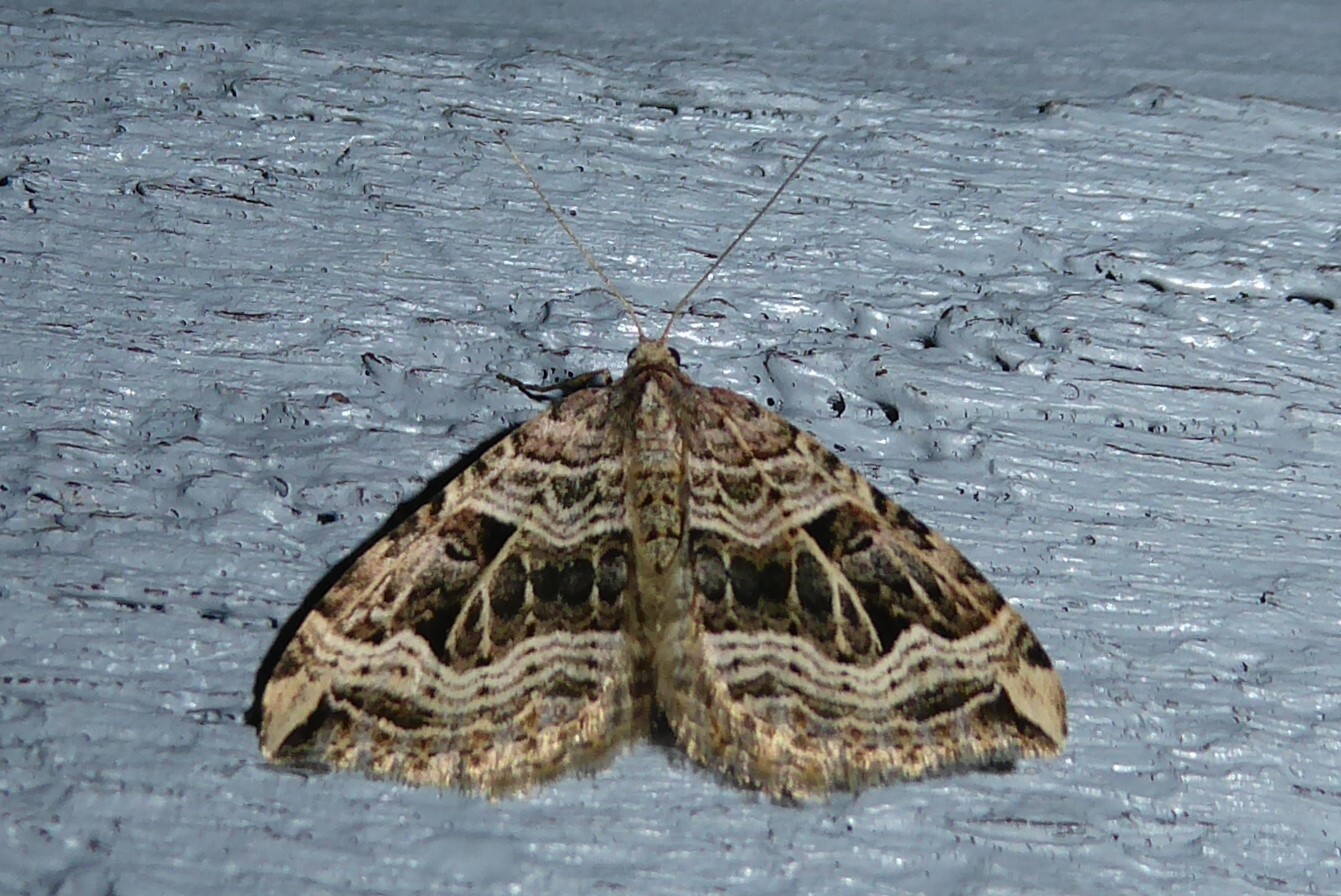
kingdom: Animalia
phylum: Arthropoda
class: Insecta
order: Lepidoptera
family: Geometridae
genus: Xanthorhoe
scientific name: Xanthorhoe semifissata
